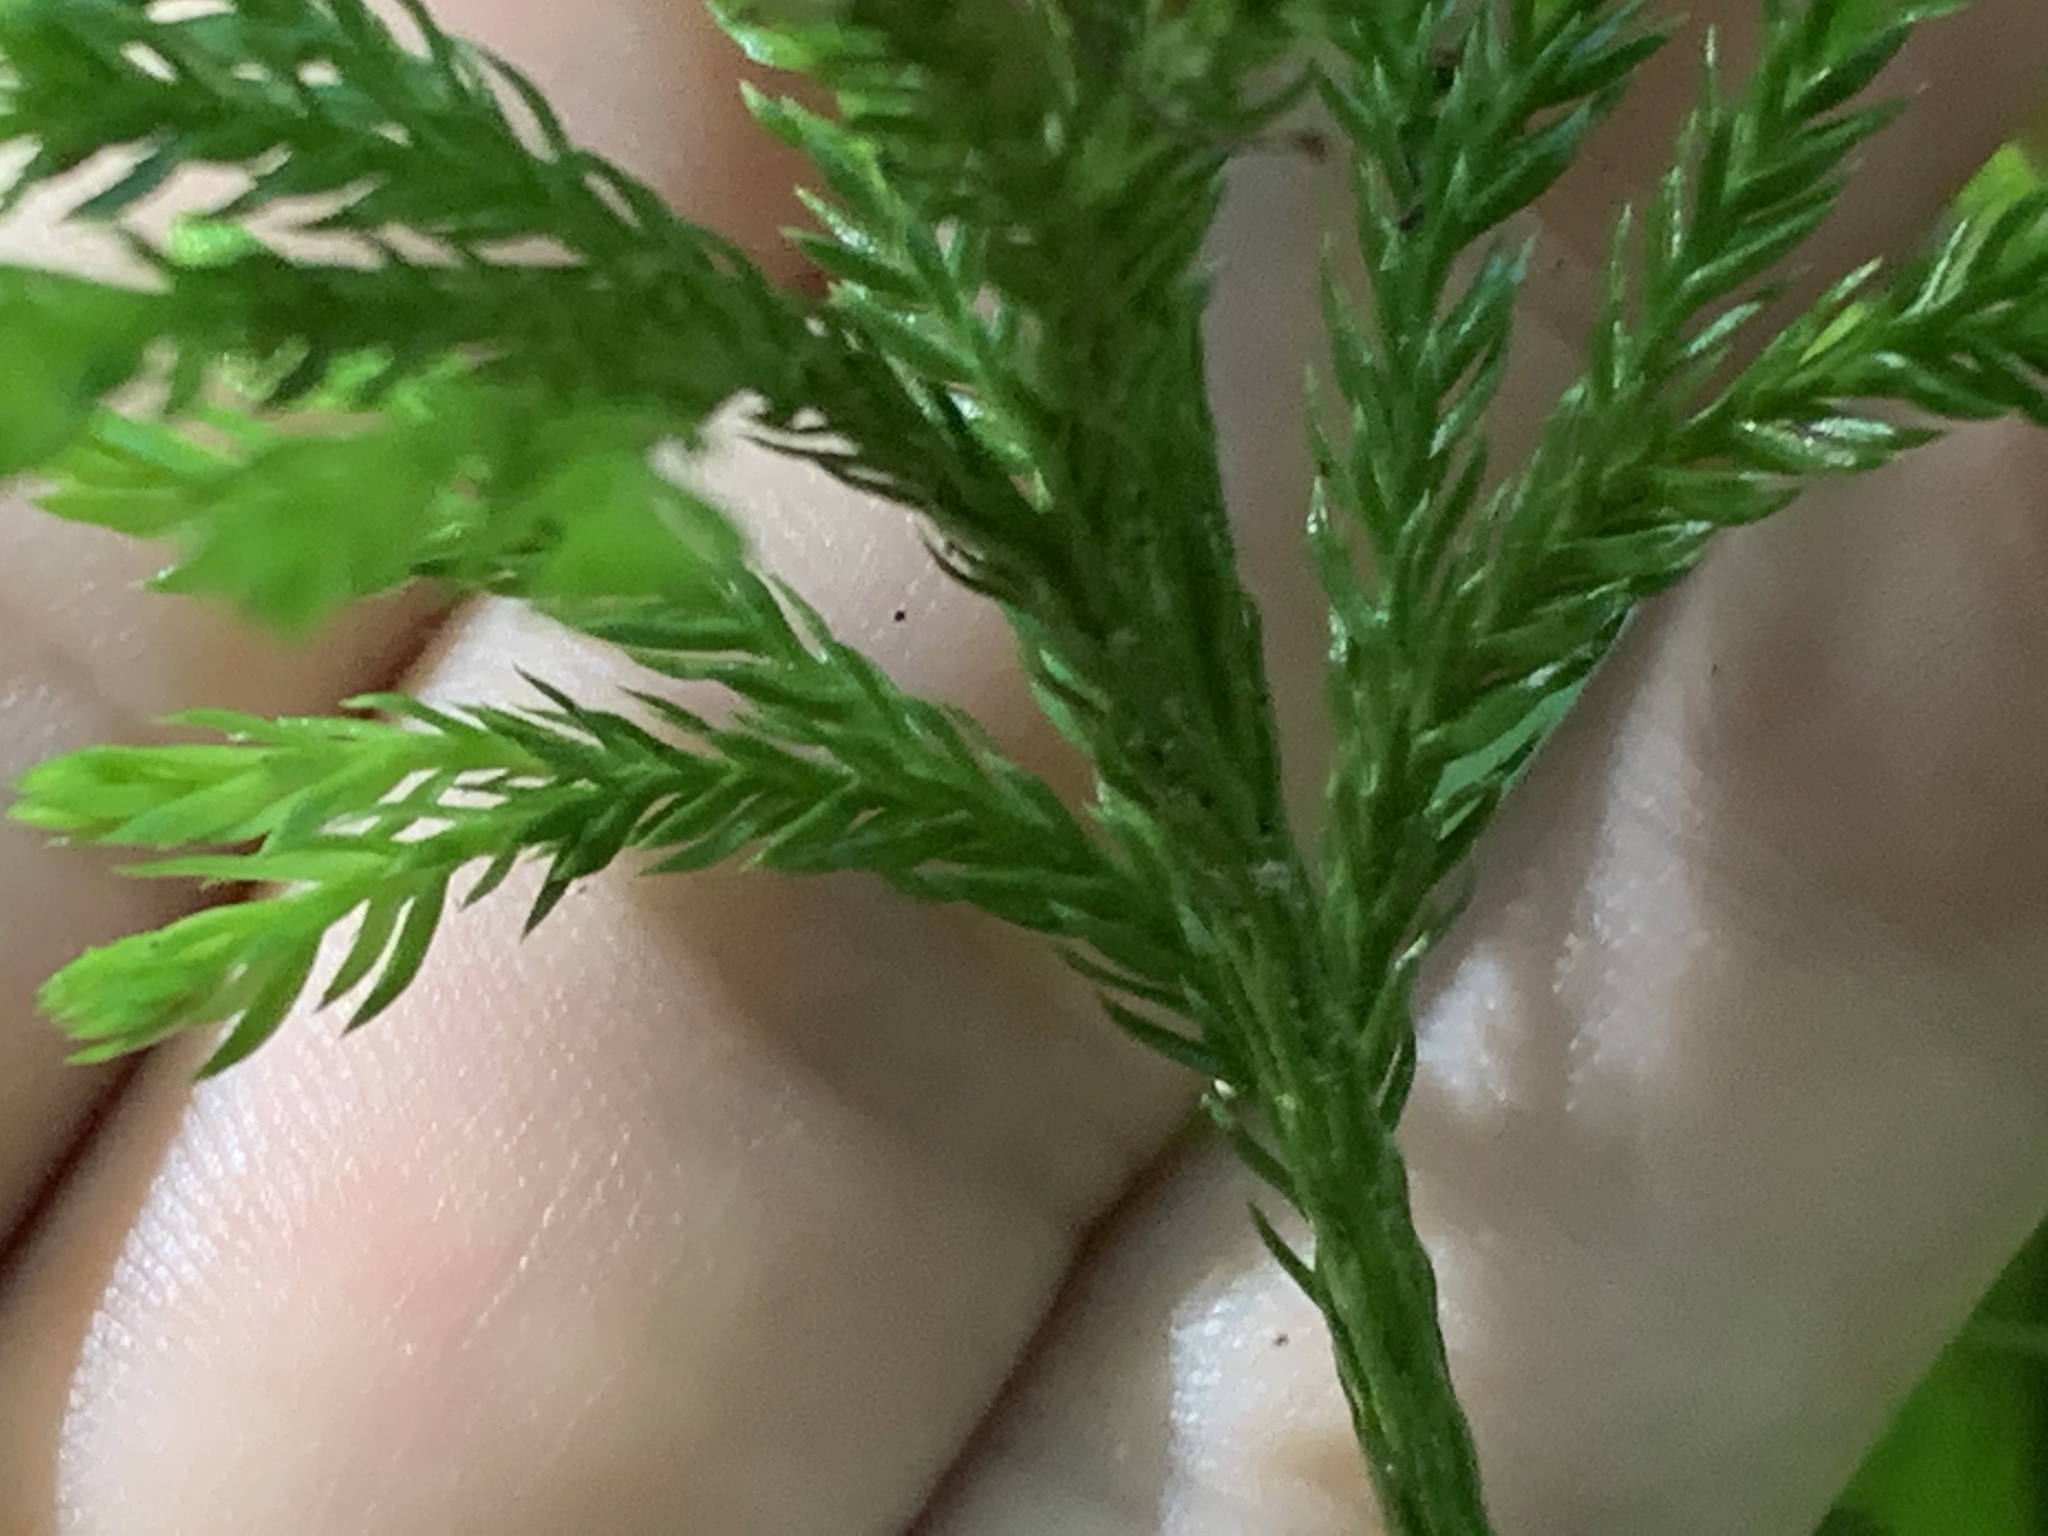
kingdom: Plantae
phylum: Tracheophyta
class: Lycopodiopsida
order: Lycopodiales
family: Lycopodiaceae
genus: Dendrolycopodium
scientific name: Dendrolycopodium obscurum
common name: Common ground-pine
